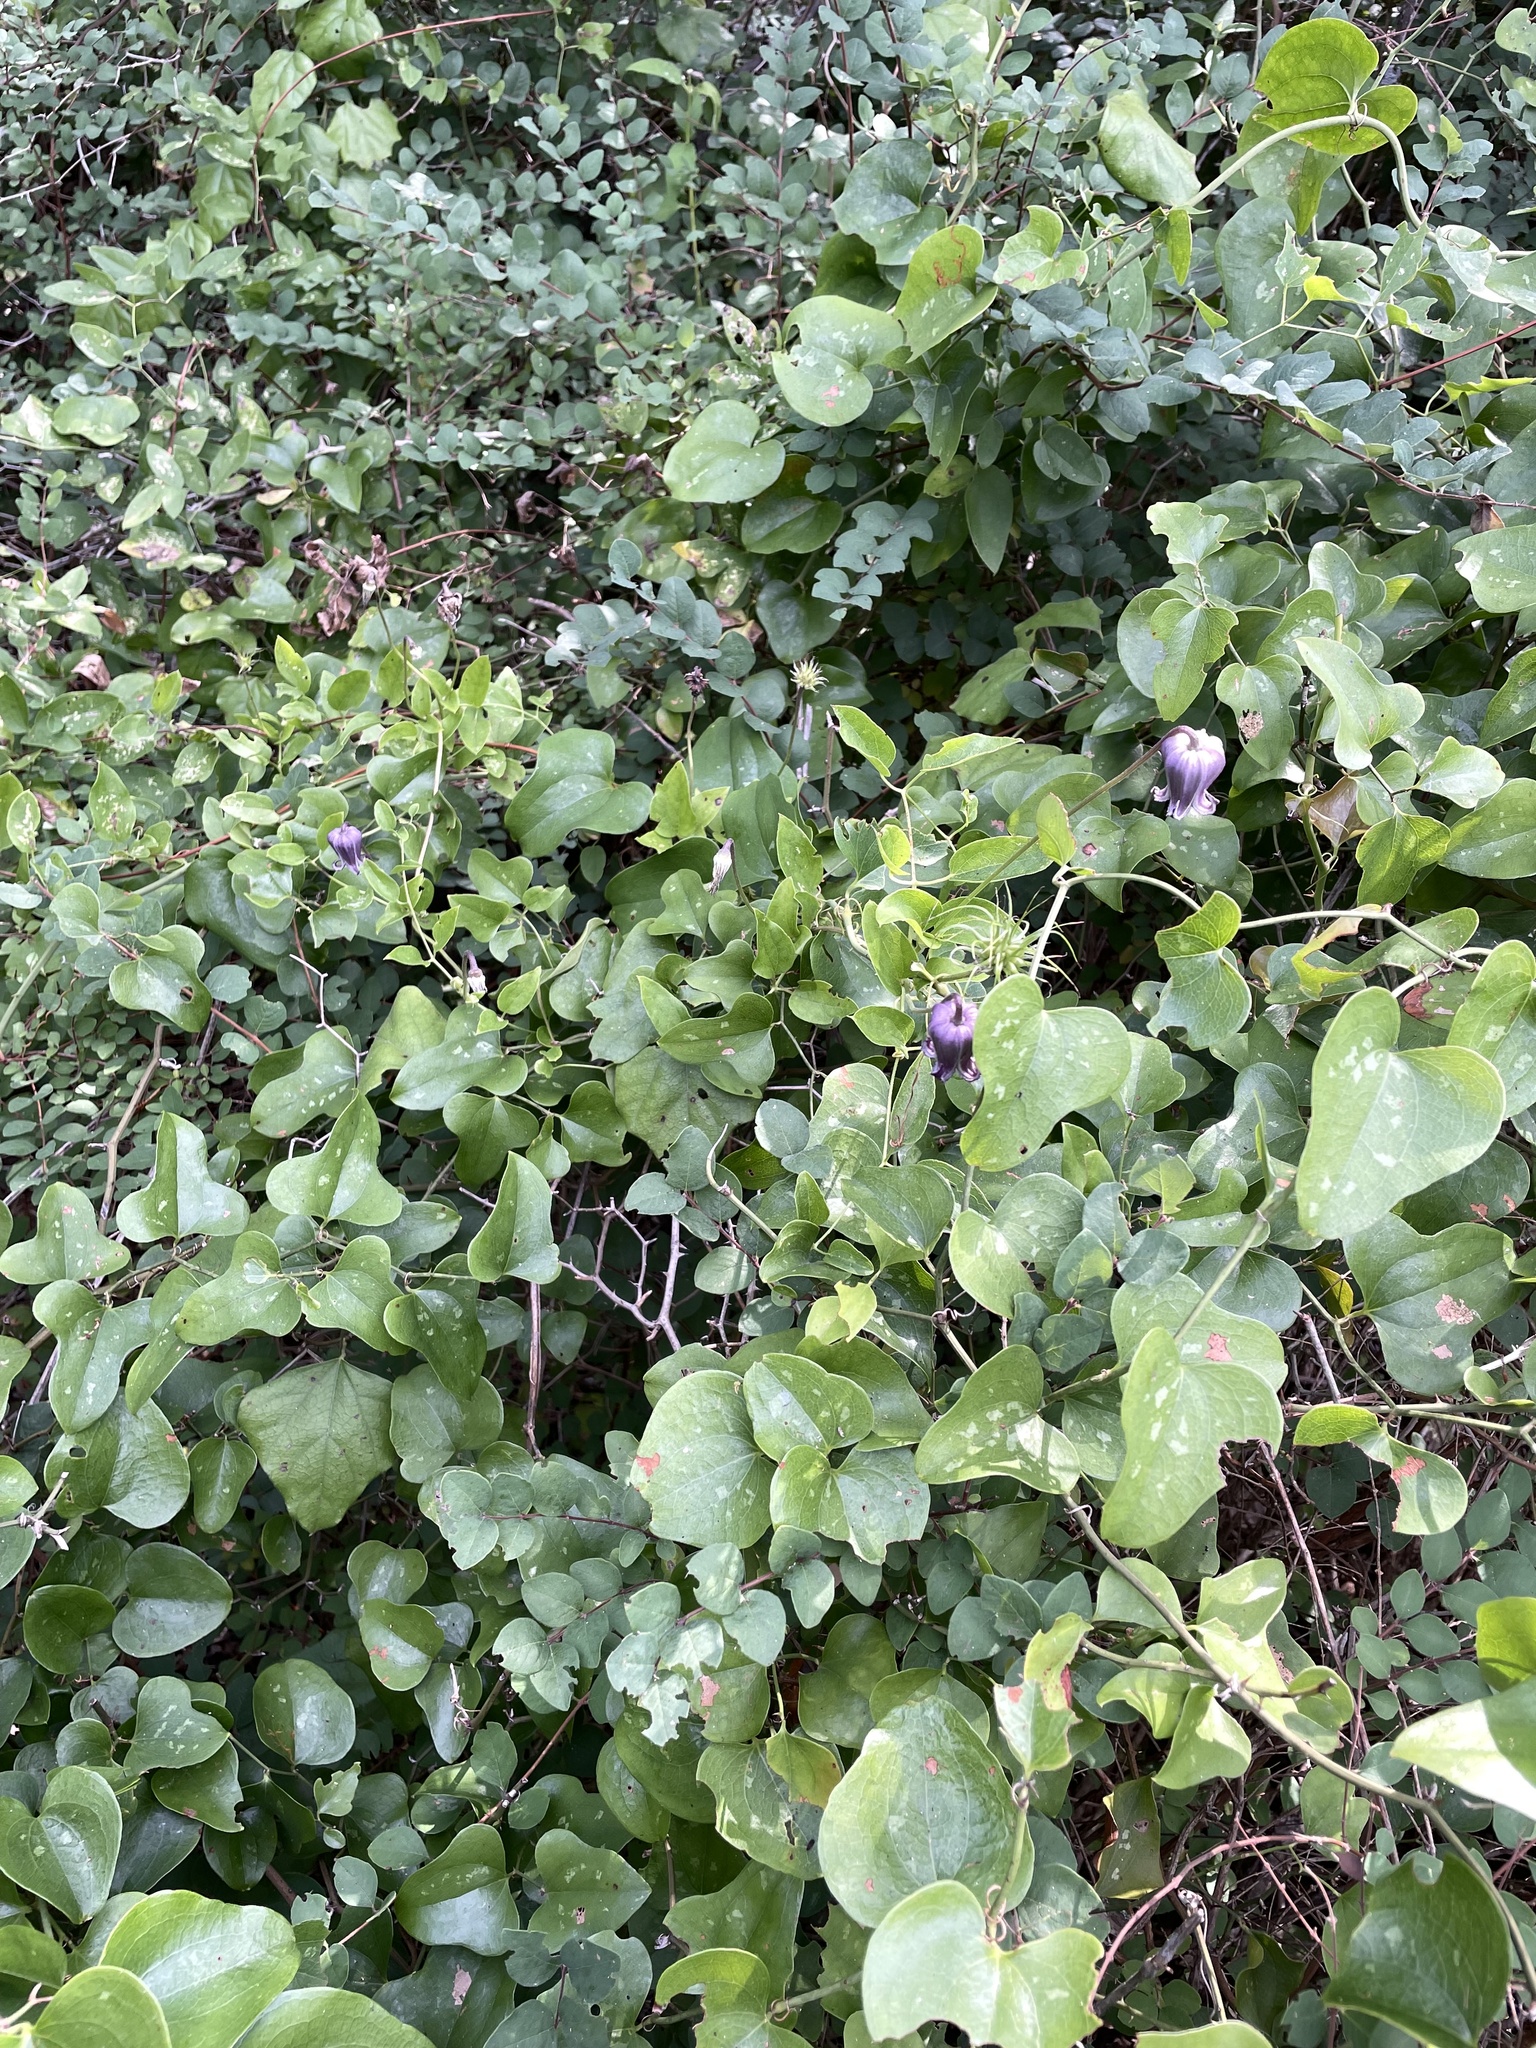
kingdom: Plantae
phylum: Tracheophyta
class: Magnoliopsida
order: Ranunculales
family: Ranunculaceae
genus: Clematis
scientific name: Clematis pitcheri
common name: Bellflower clematis
